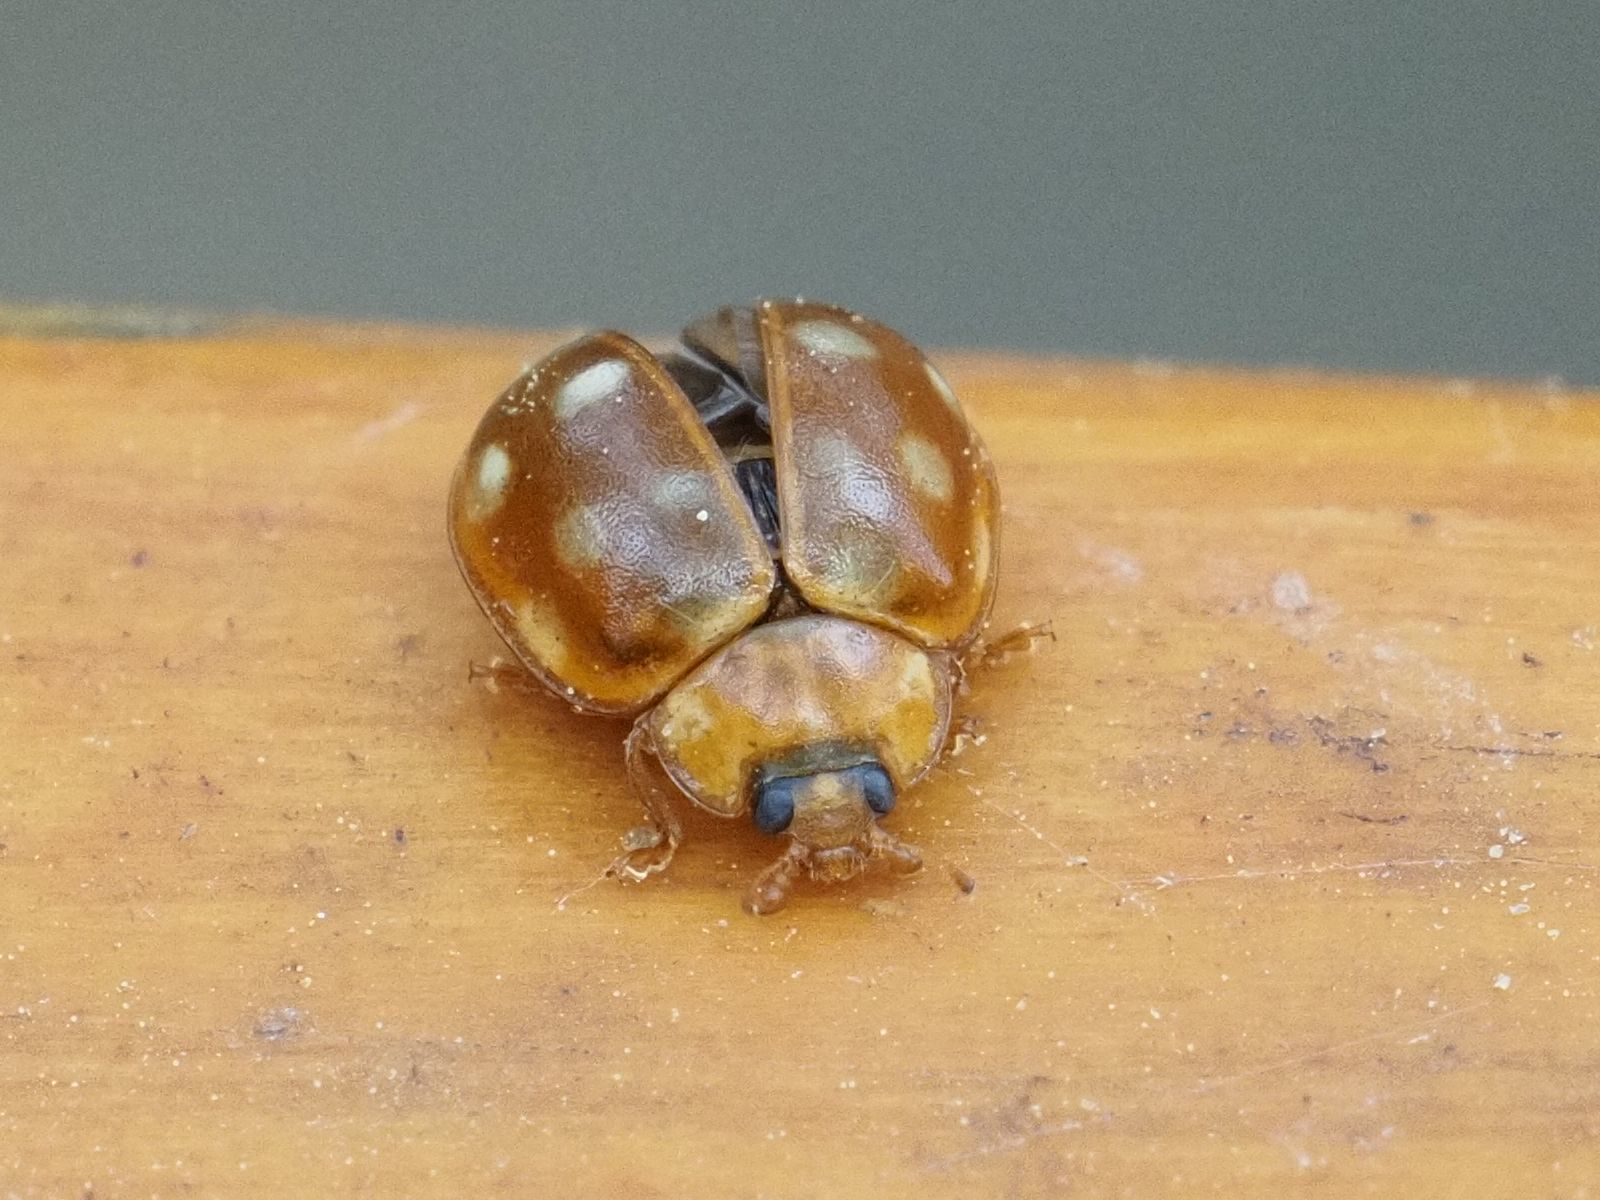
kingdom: Animalia
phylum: Arthropoda
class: Insecta
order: Coleoptera
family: Coccinellidae
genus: Calvia
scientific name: Calvia quatuordecimguttata
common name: Cream-spot ladybird
